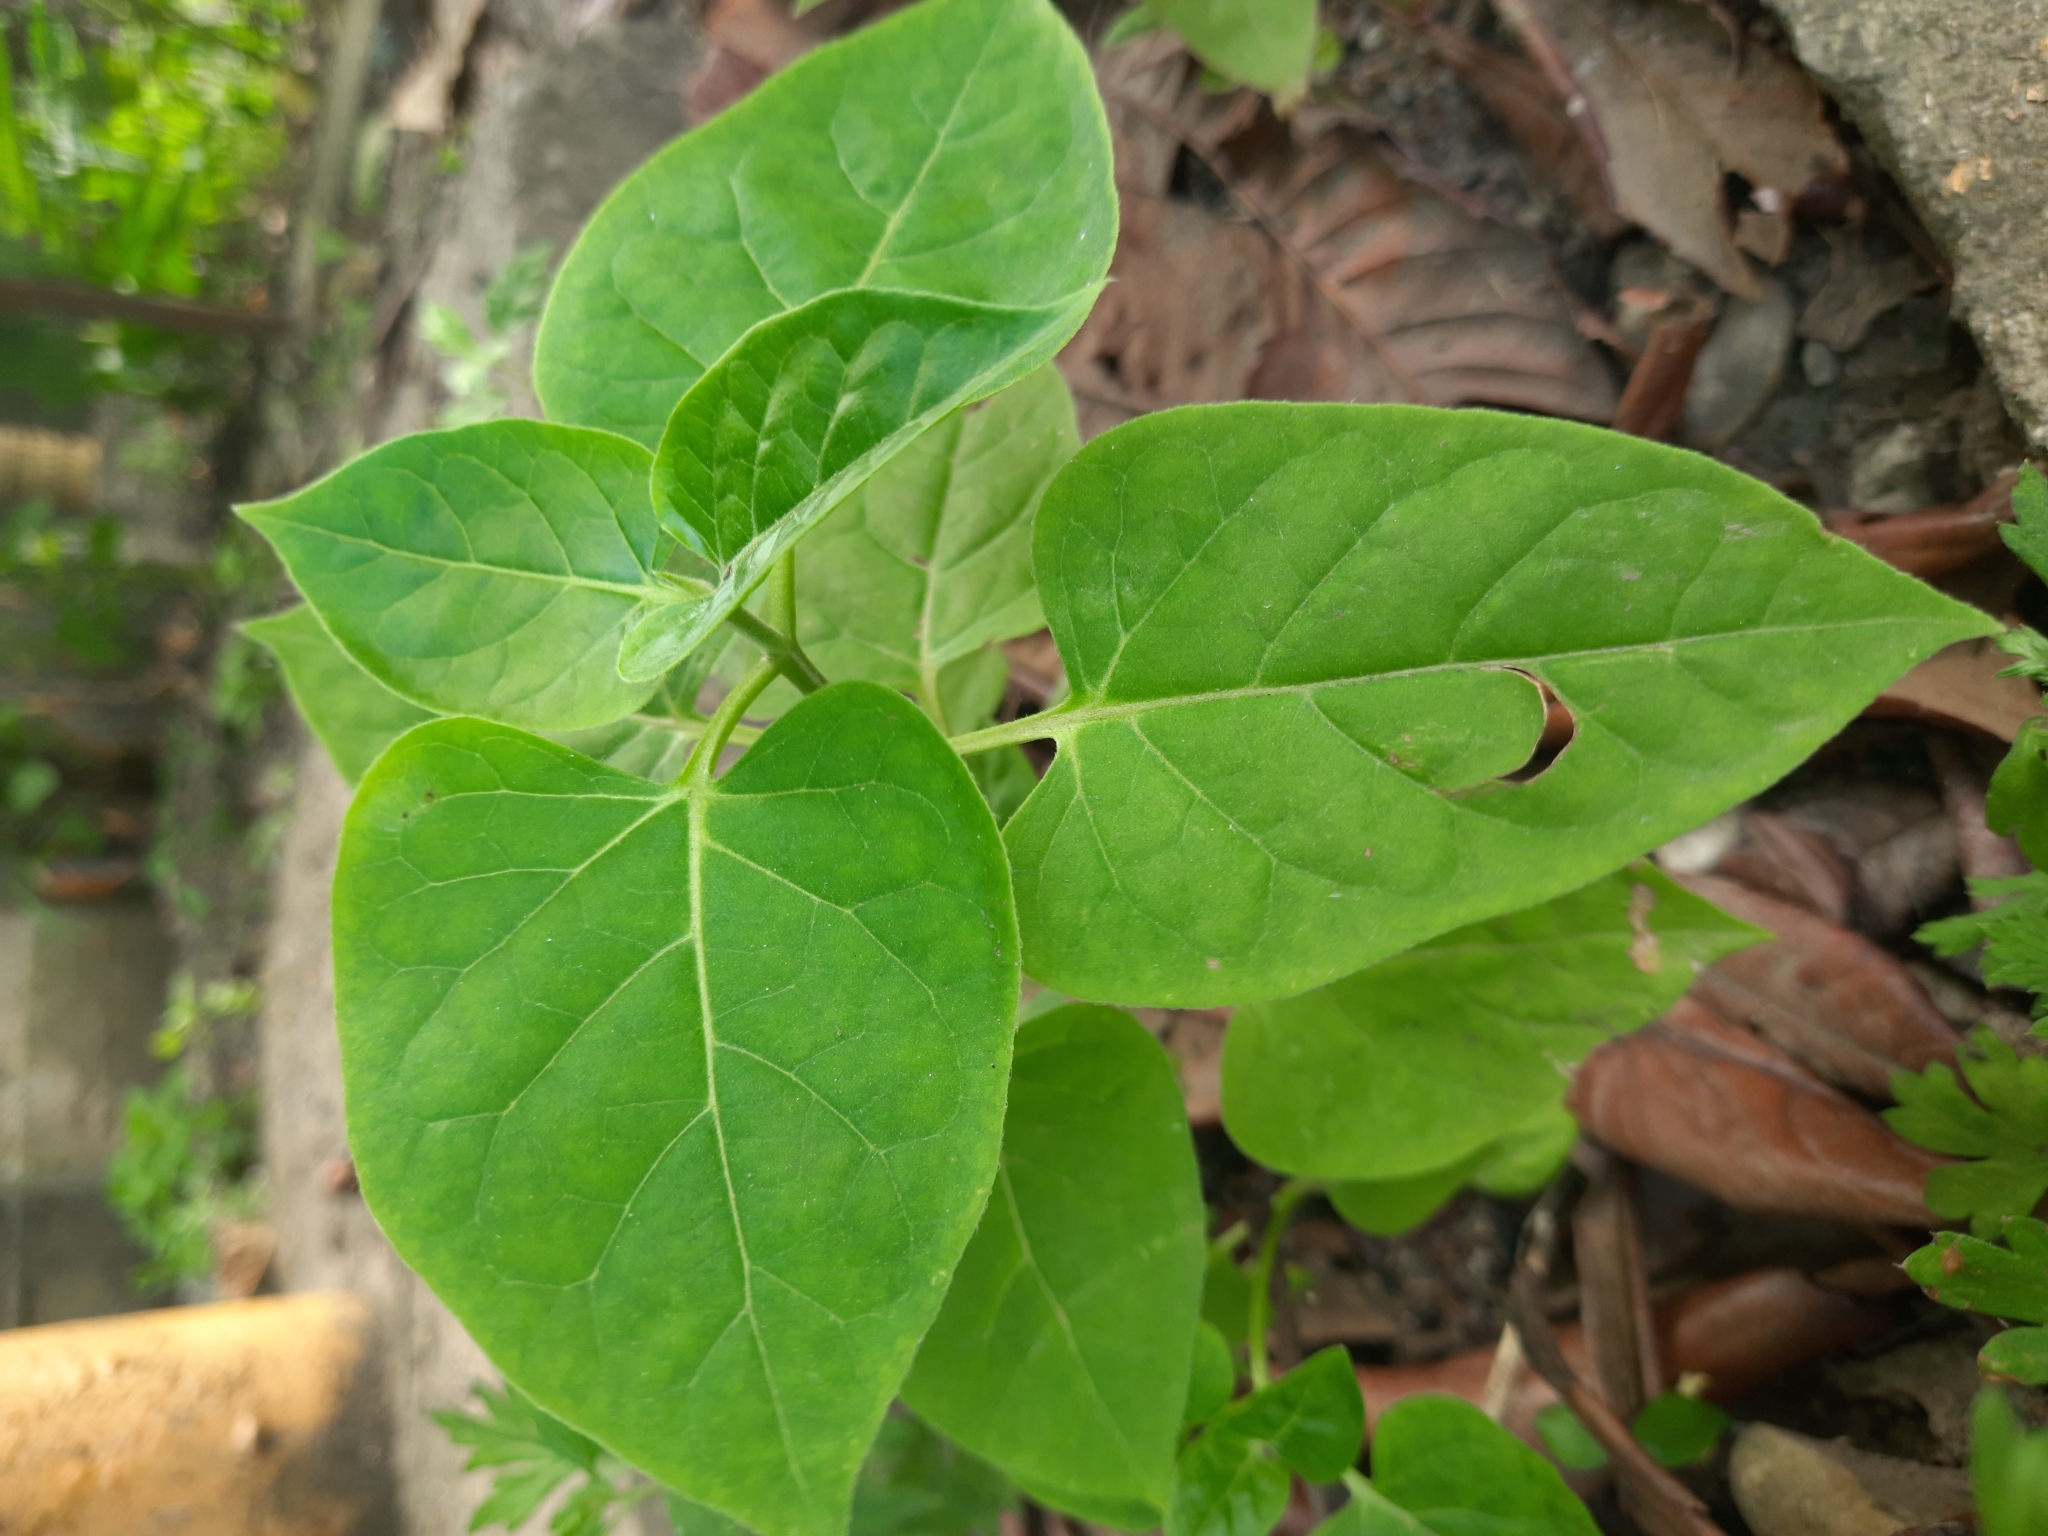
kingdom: Plantae
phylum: Tracheophyta
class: Magnoliopsida
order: Caryophyllales
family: Nyctaginaceae
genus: Mirabilis
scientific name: Mirabilis jalapa
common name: Marvel-of-peru
